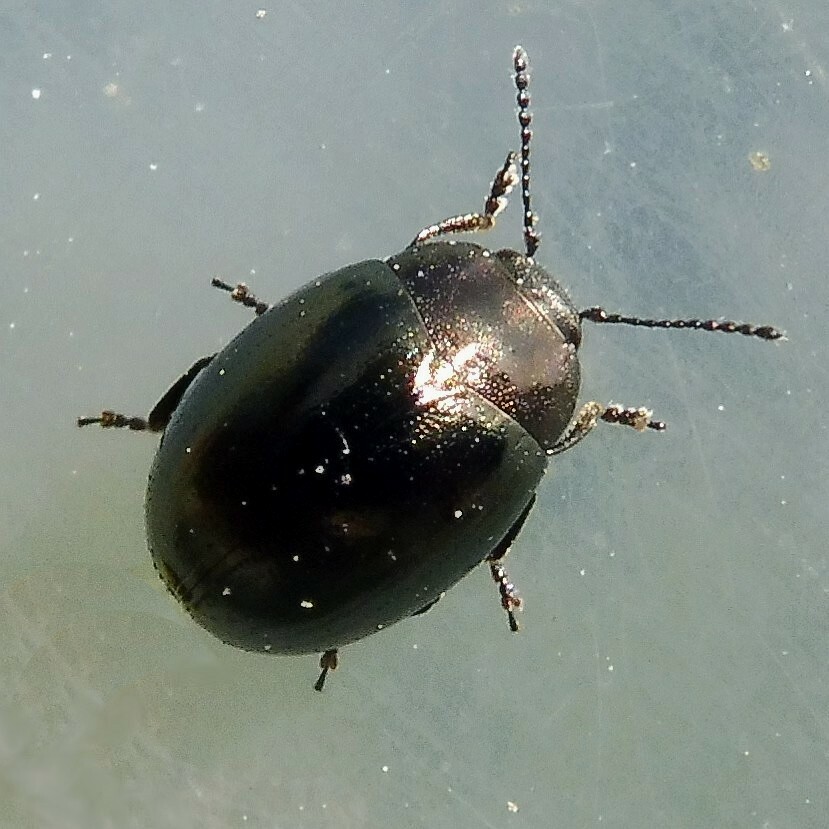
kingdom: Animalia
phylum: Arthropoda
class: Insecta
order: Coleoptera
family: Chrysomelidae
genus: Phaedon
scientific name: Phaedon tumidulus
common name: Celery leaf beetle
